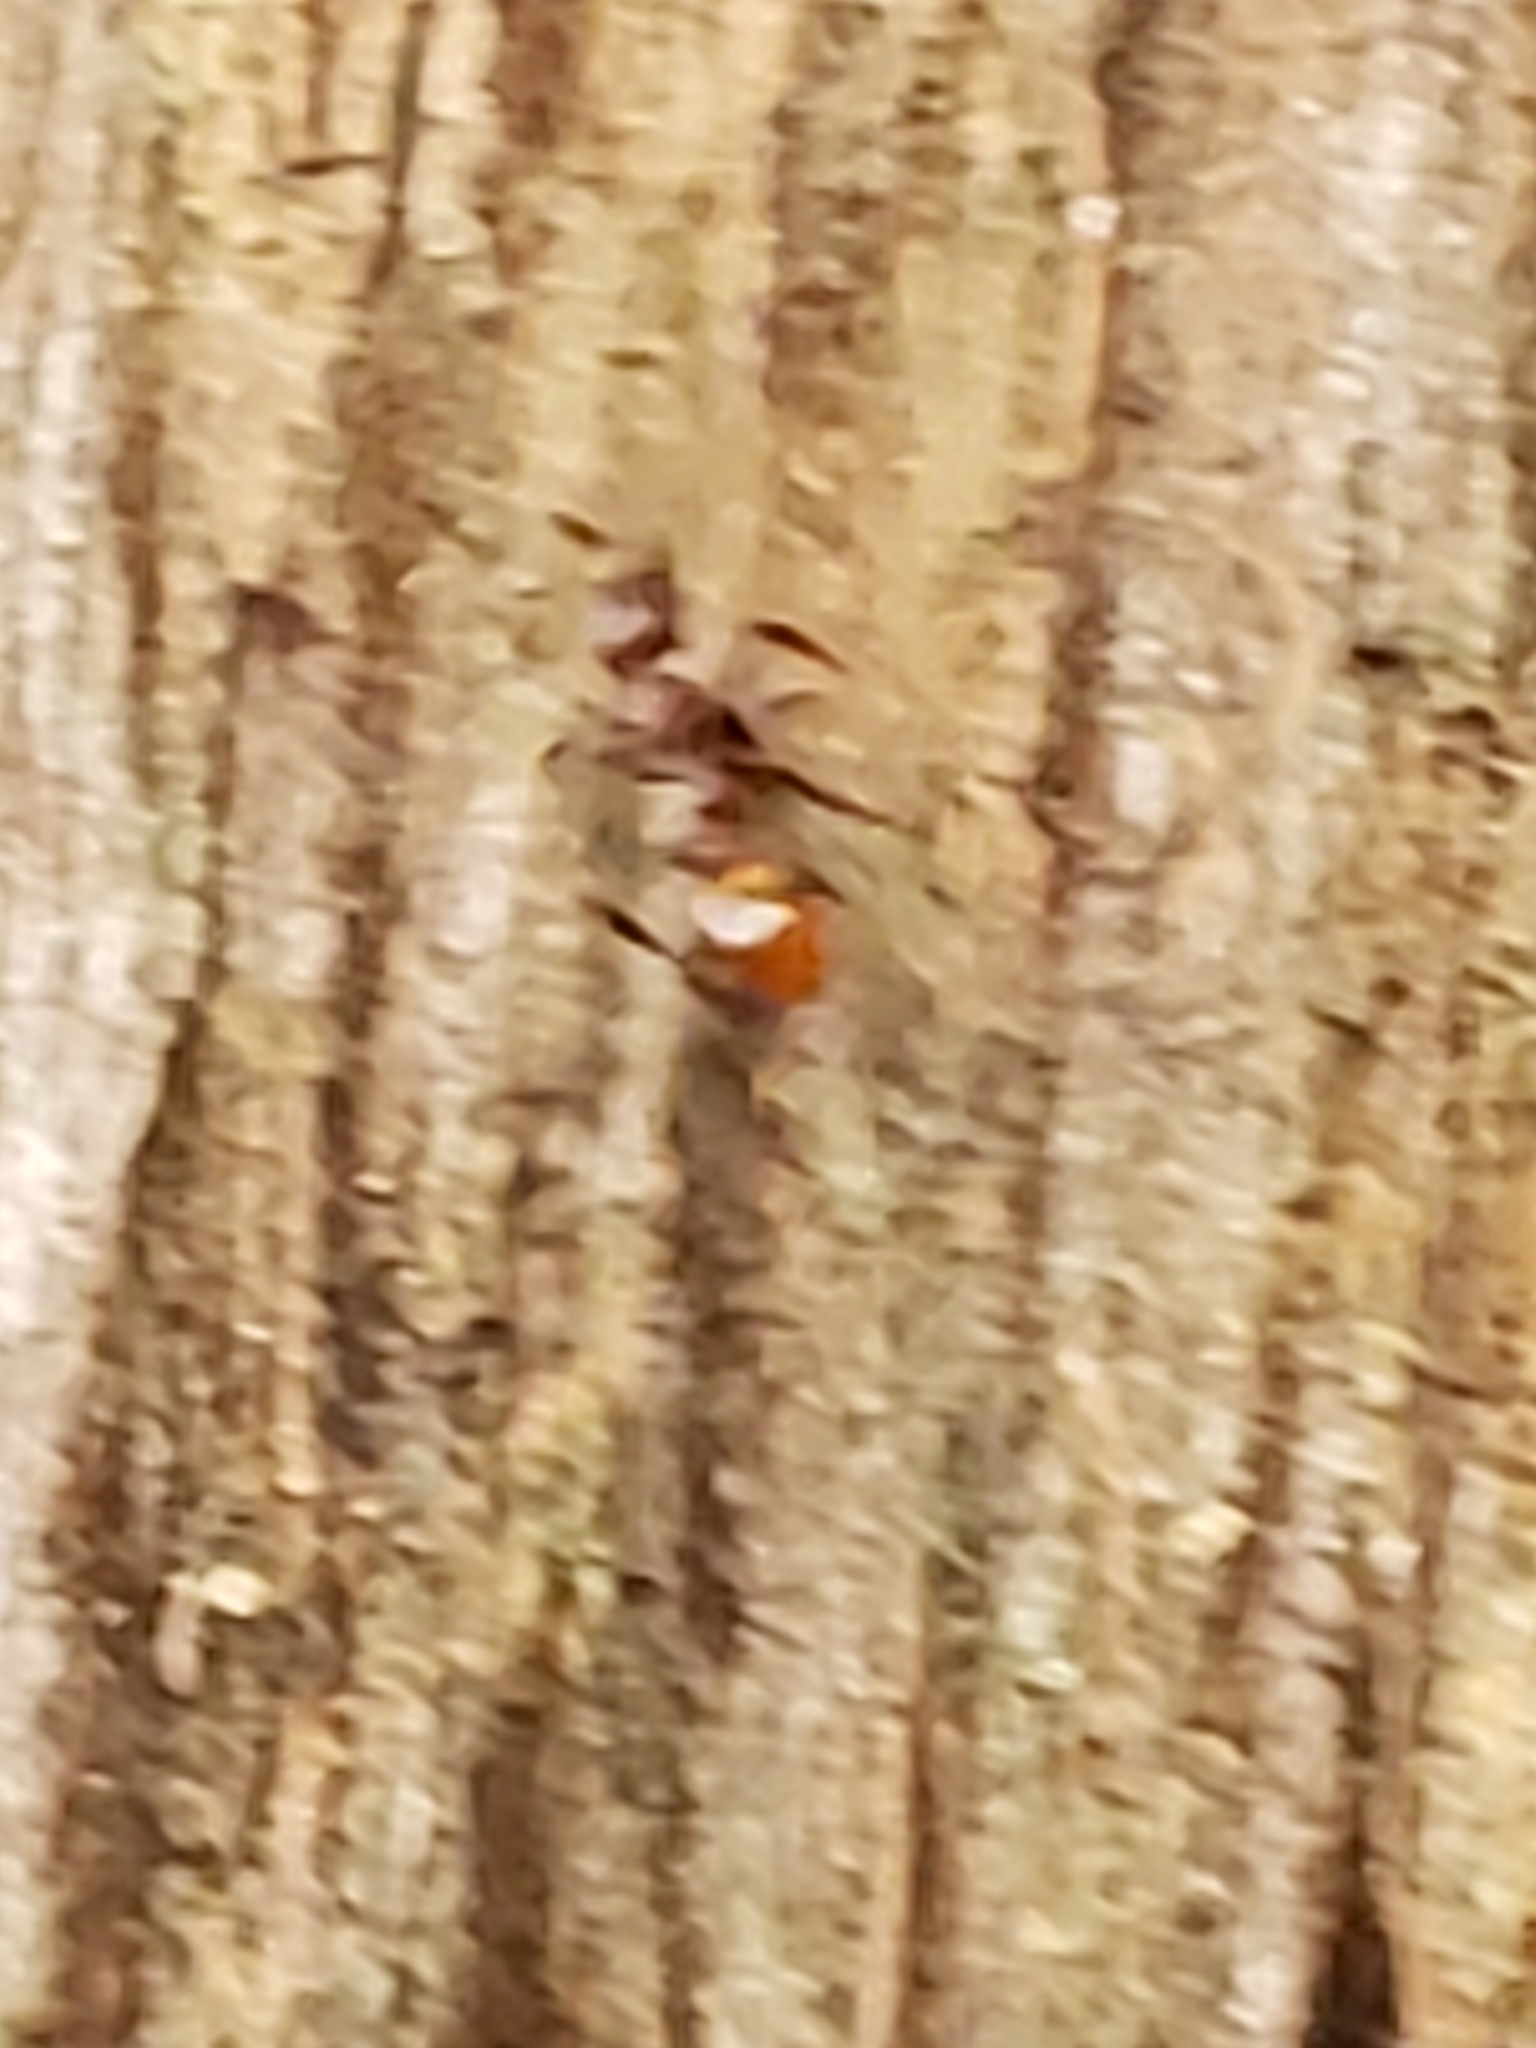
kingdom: Animalia
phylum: Arthropoda
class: Insecta
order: Hymenoptera
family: Formicidae
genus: Aphaenogaster
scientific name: Aphaenogaster tennesseensis
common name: Tennessee thread-waisted ant
